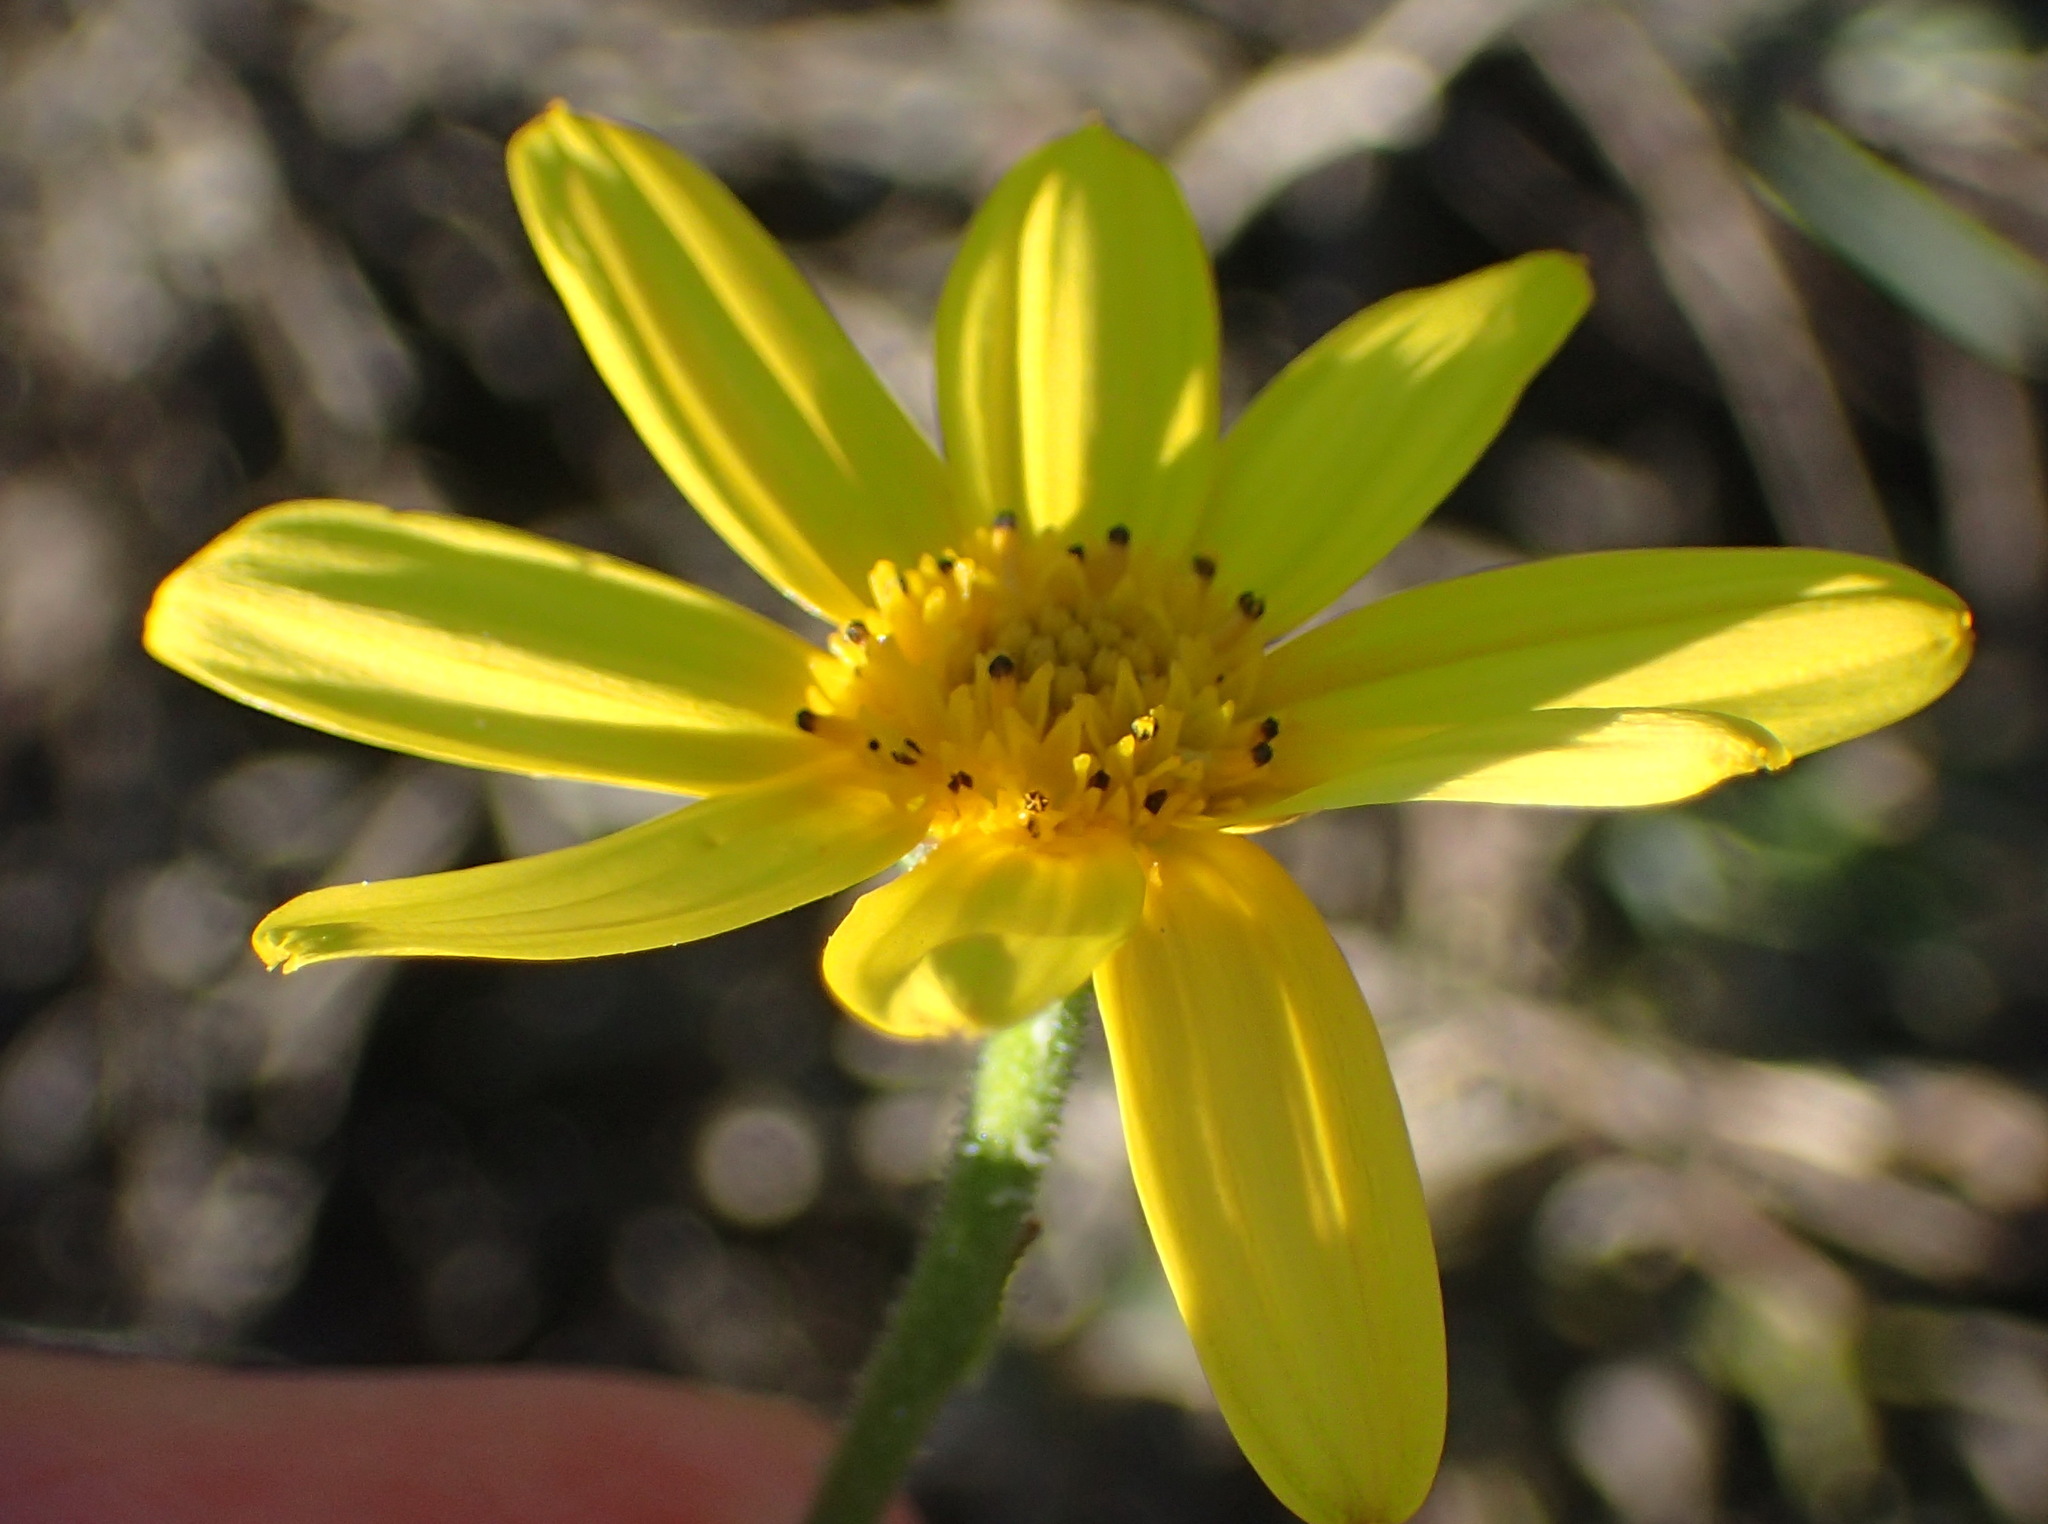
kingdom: Plantae
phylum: Tracheophyta
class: Magnoliopsida
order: Asterales
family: Asteraceae
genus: Osteospermum
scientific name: Osteospermum imbricatum
